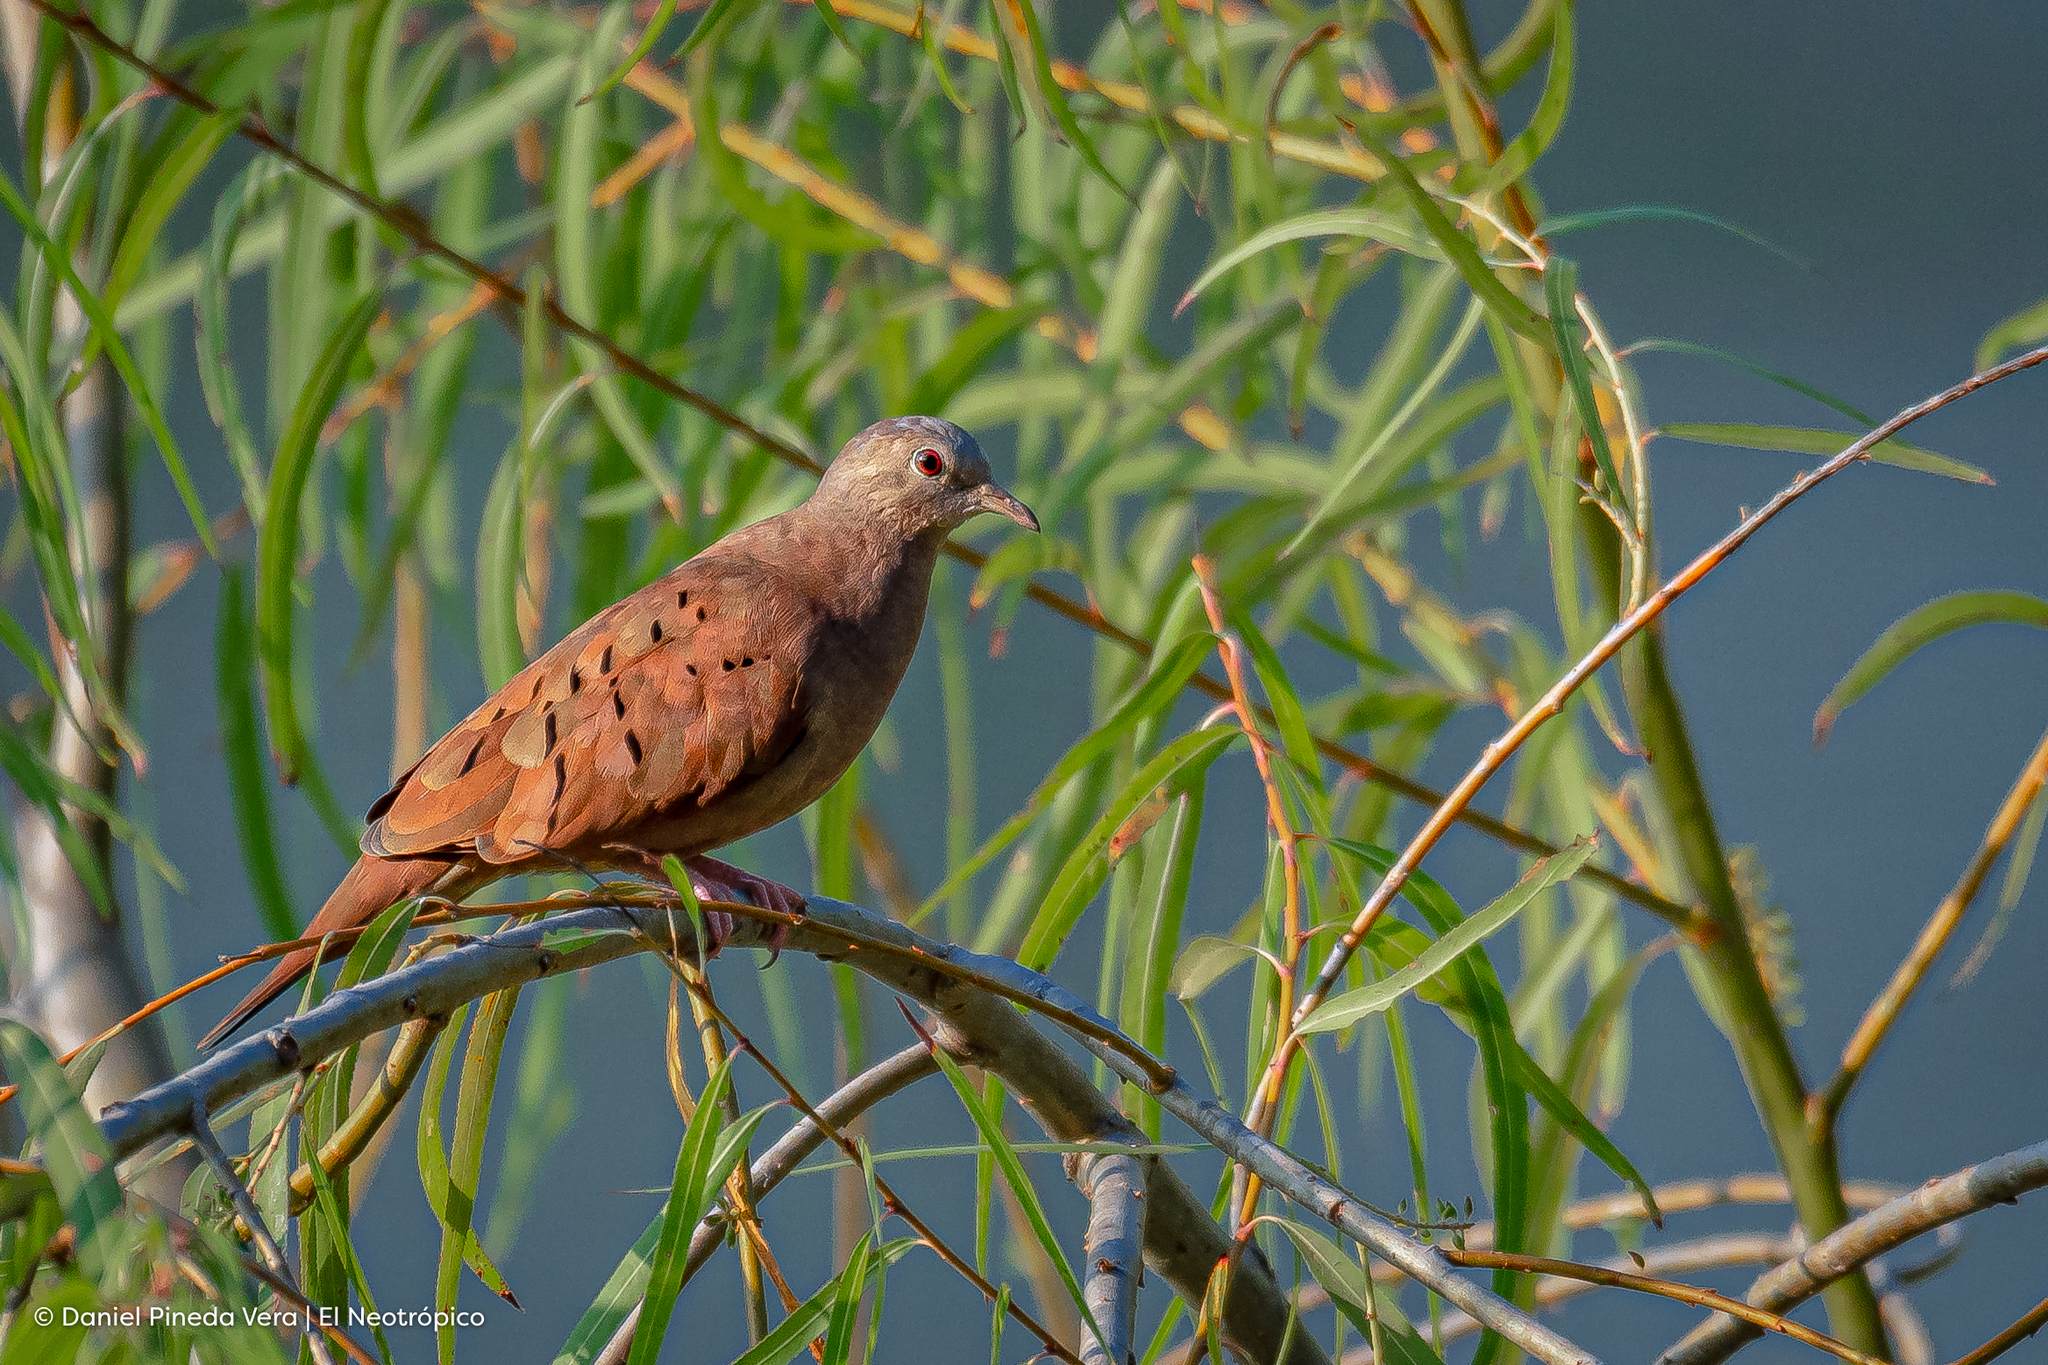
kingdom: Animalia
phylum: Chordata
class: Aves
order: Columbiformes
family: Columbidae
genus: Columbina
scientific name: Columbina talpacoti
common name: Ruddy ground dove
